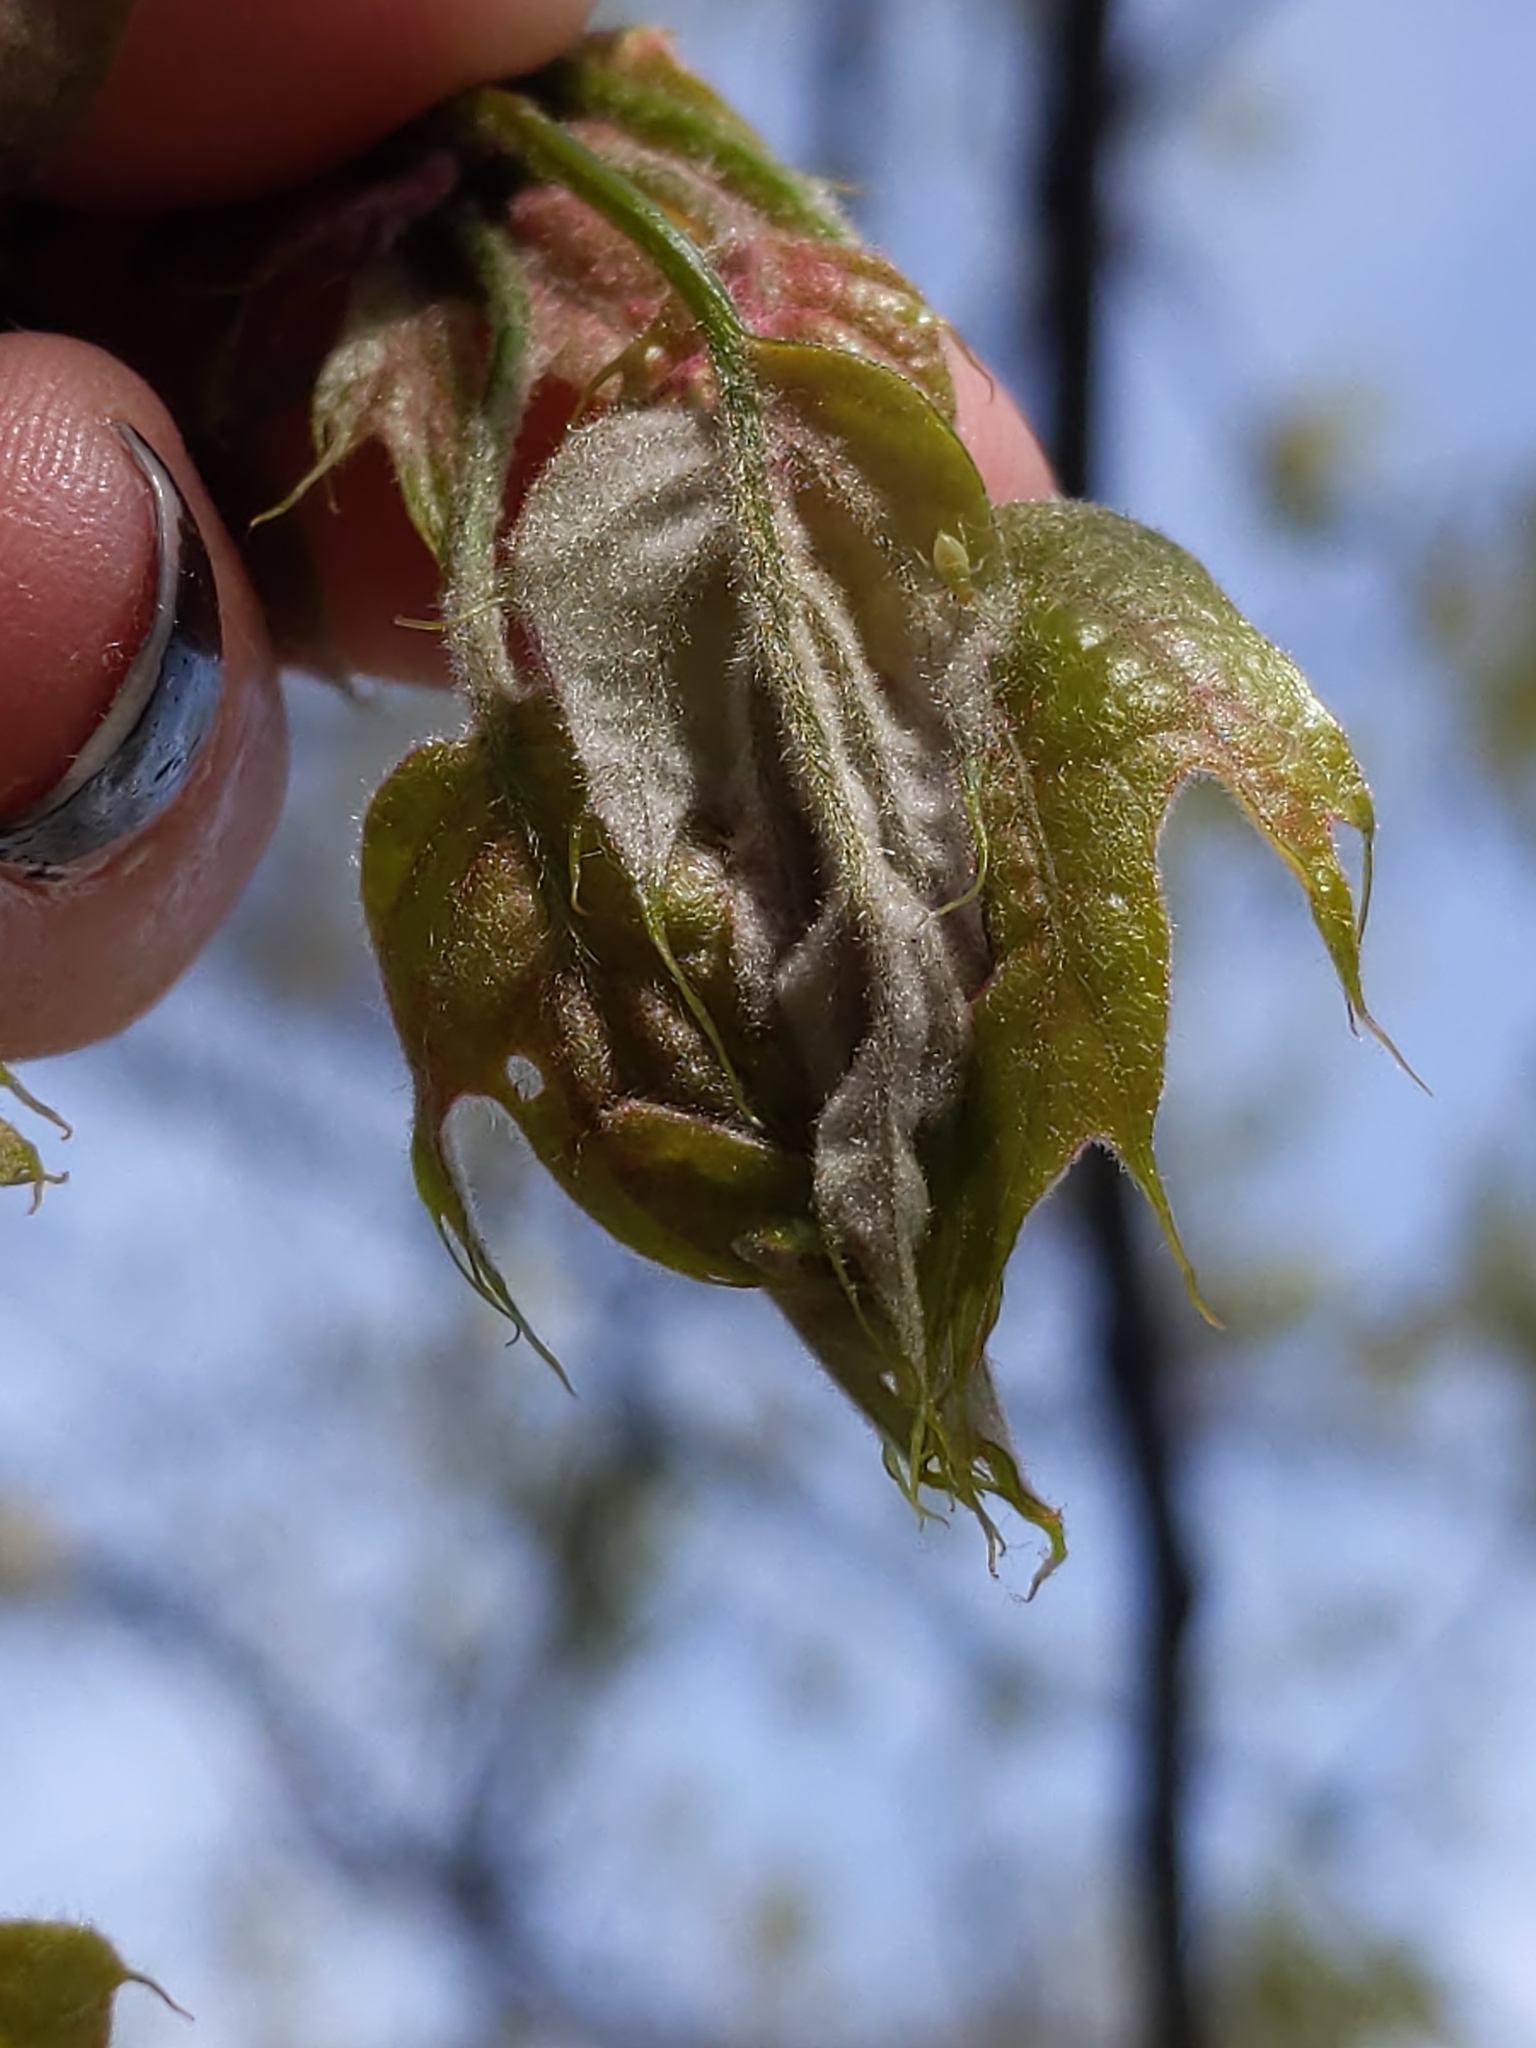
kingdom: Animalia
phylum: Arthropoda
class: Insecta
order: Diptera
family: Cecidomyiidae
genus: Macrodiplosis
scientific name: Macrodiplosis niveipila
